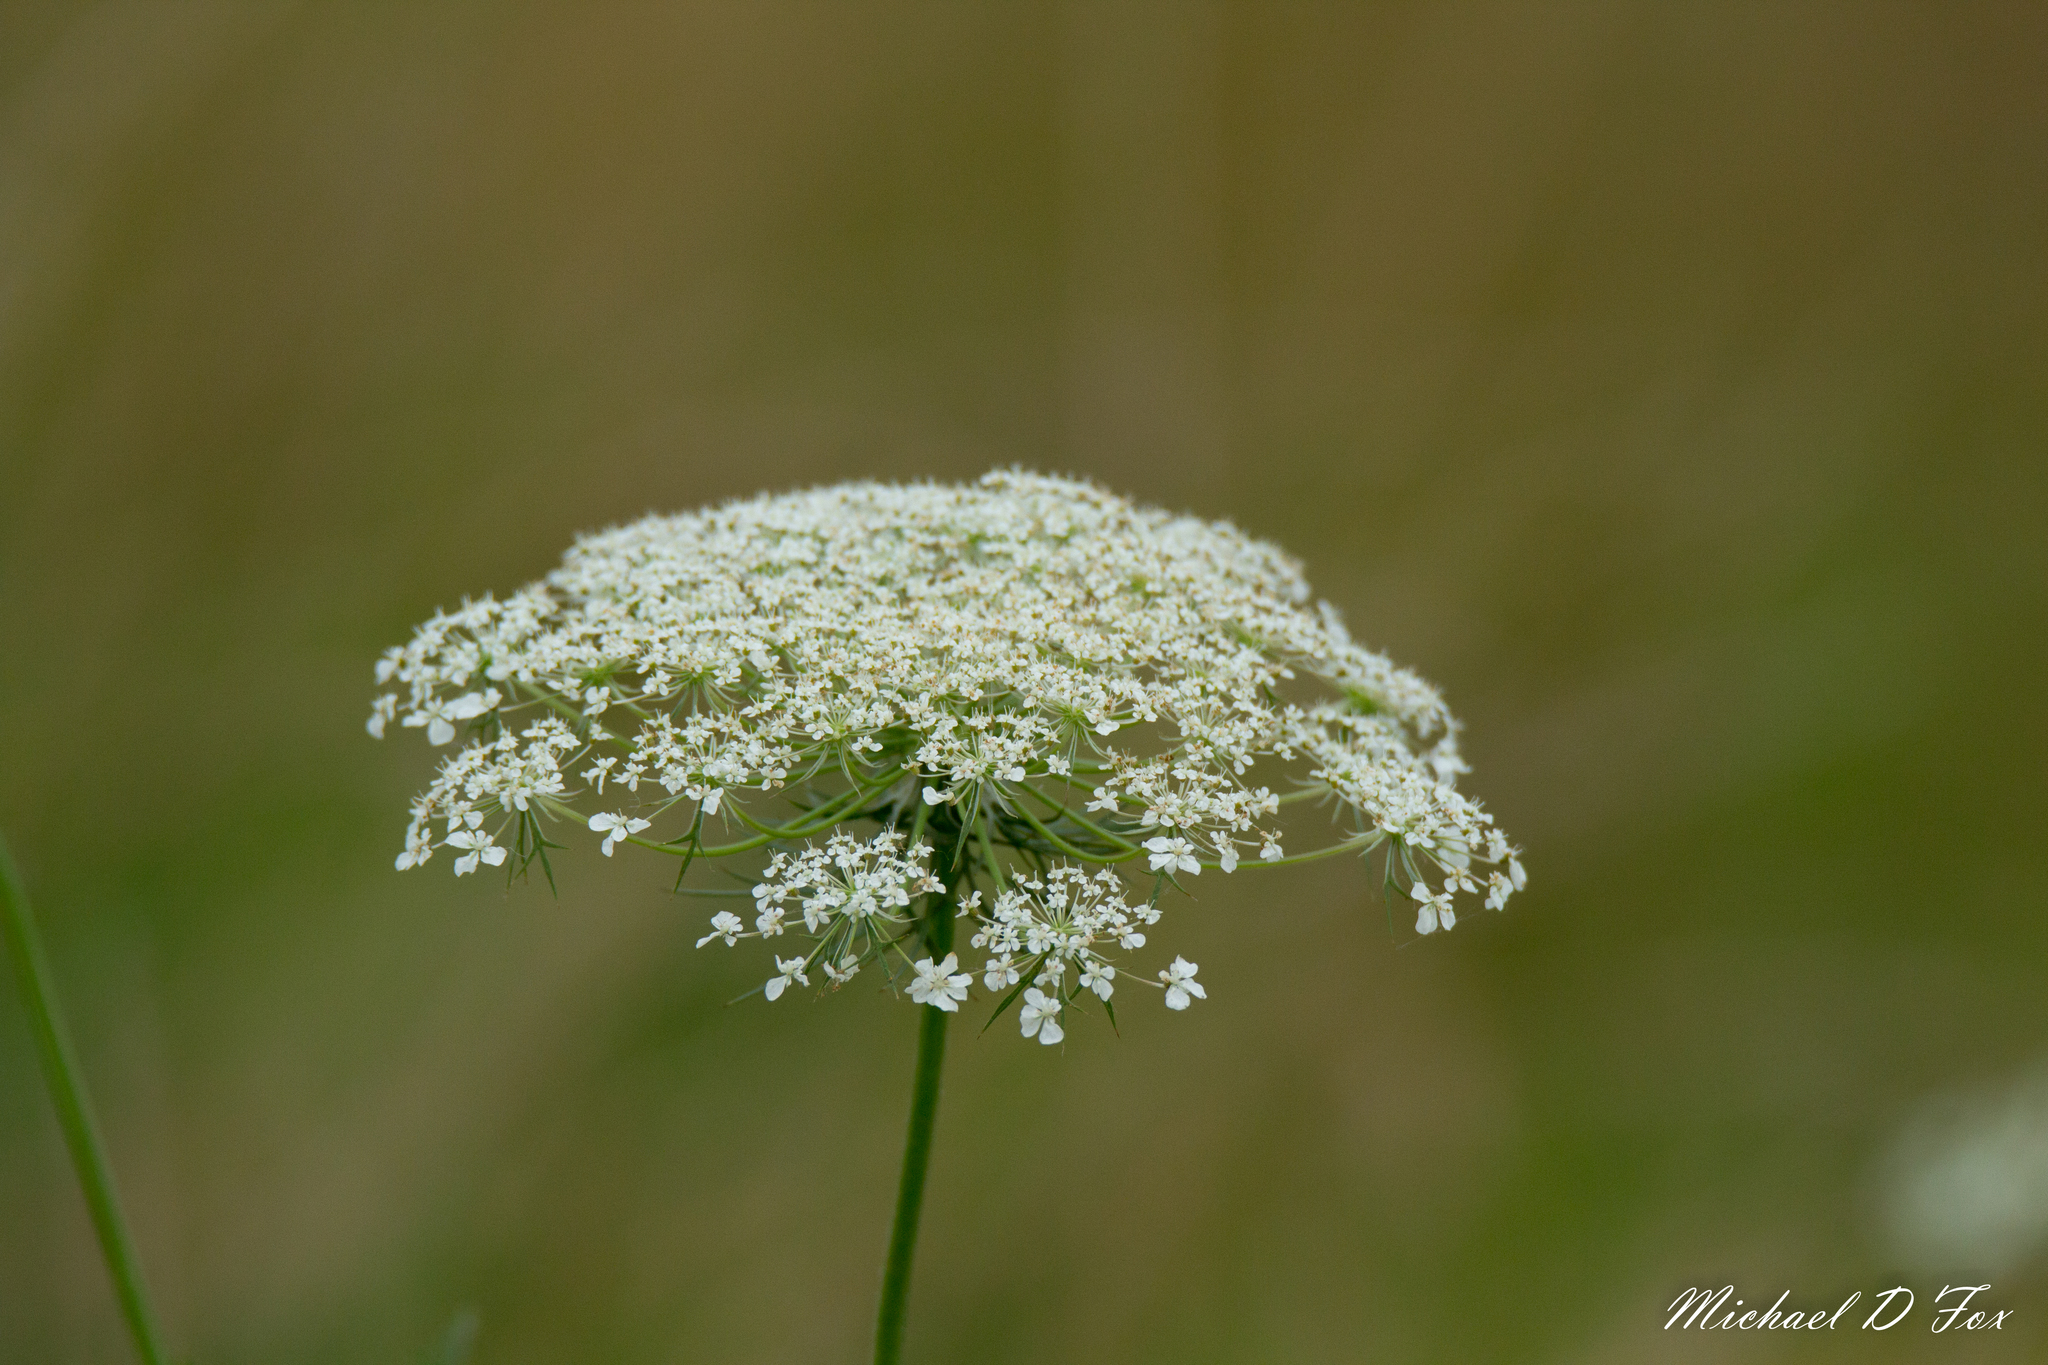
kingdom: Plantae
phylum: Tracheophyta
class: Magnoliopsida
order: Apiales
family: Apiaceae
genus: Daucus
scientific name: Daucus carota
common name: Wild carrot
